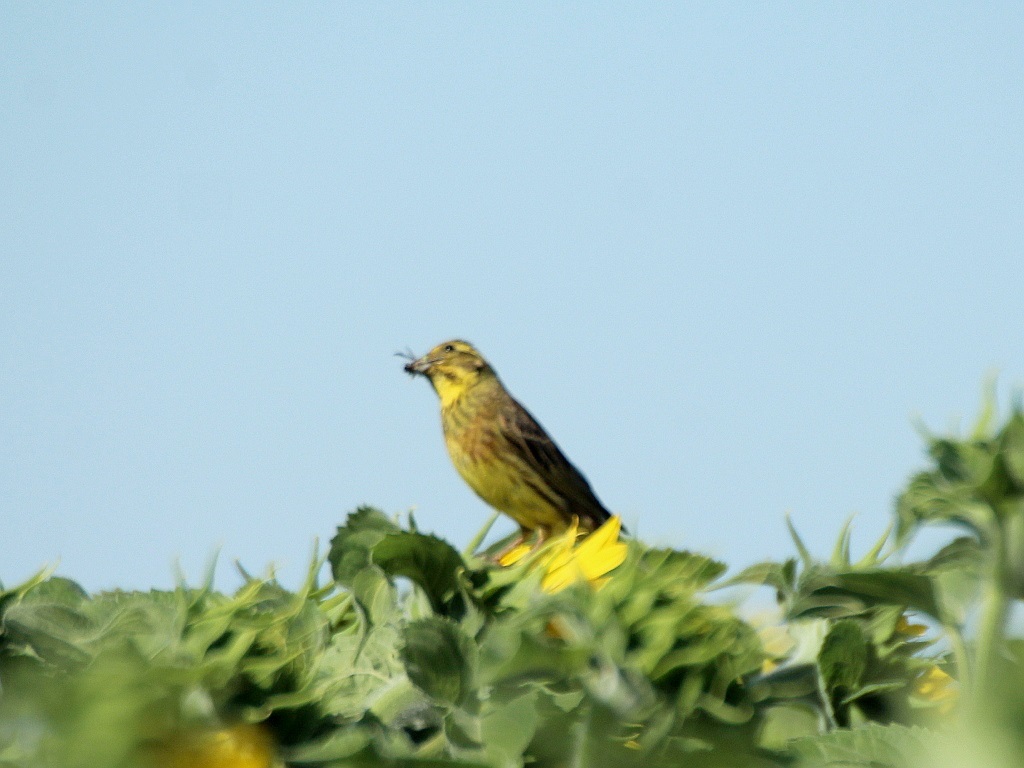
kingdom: Animalia
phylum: Chordata
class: Aves
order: Passeriformes
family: Emberizidae
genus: Emberiza
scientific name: Emberiza citrinella
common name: Yellowhammer
